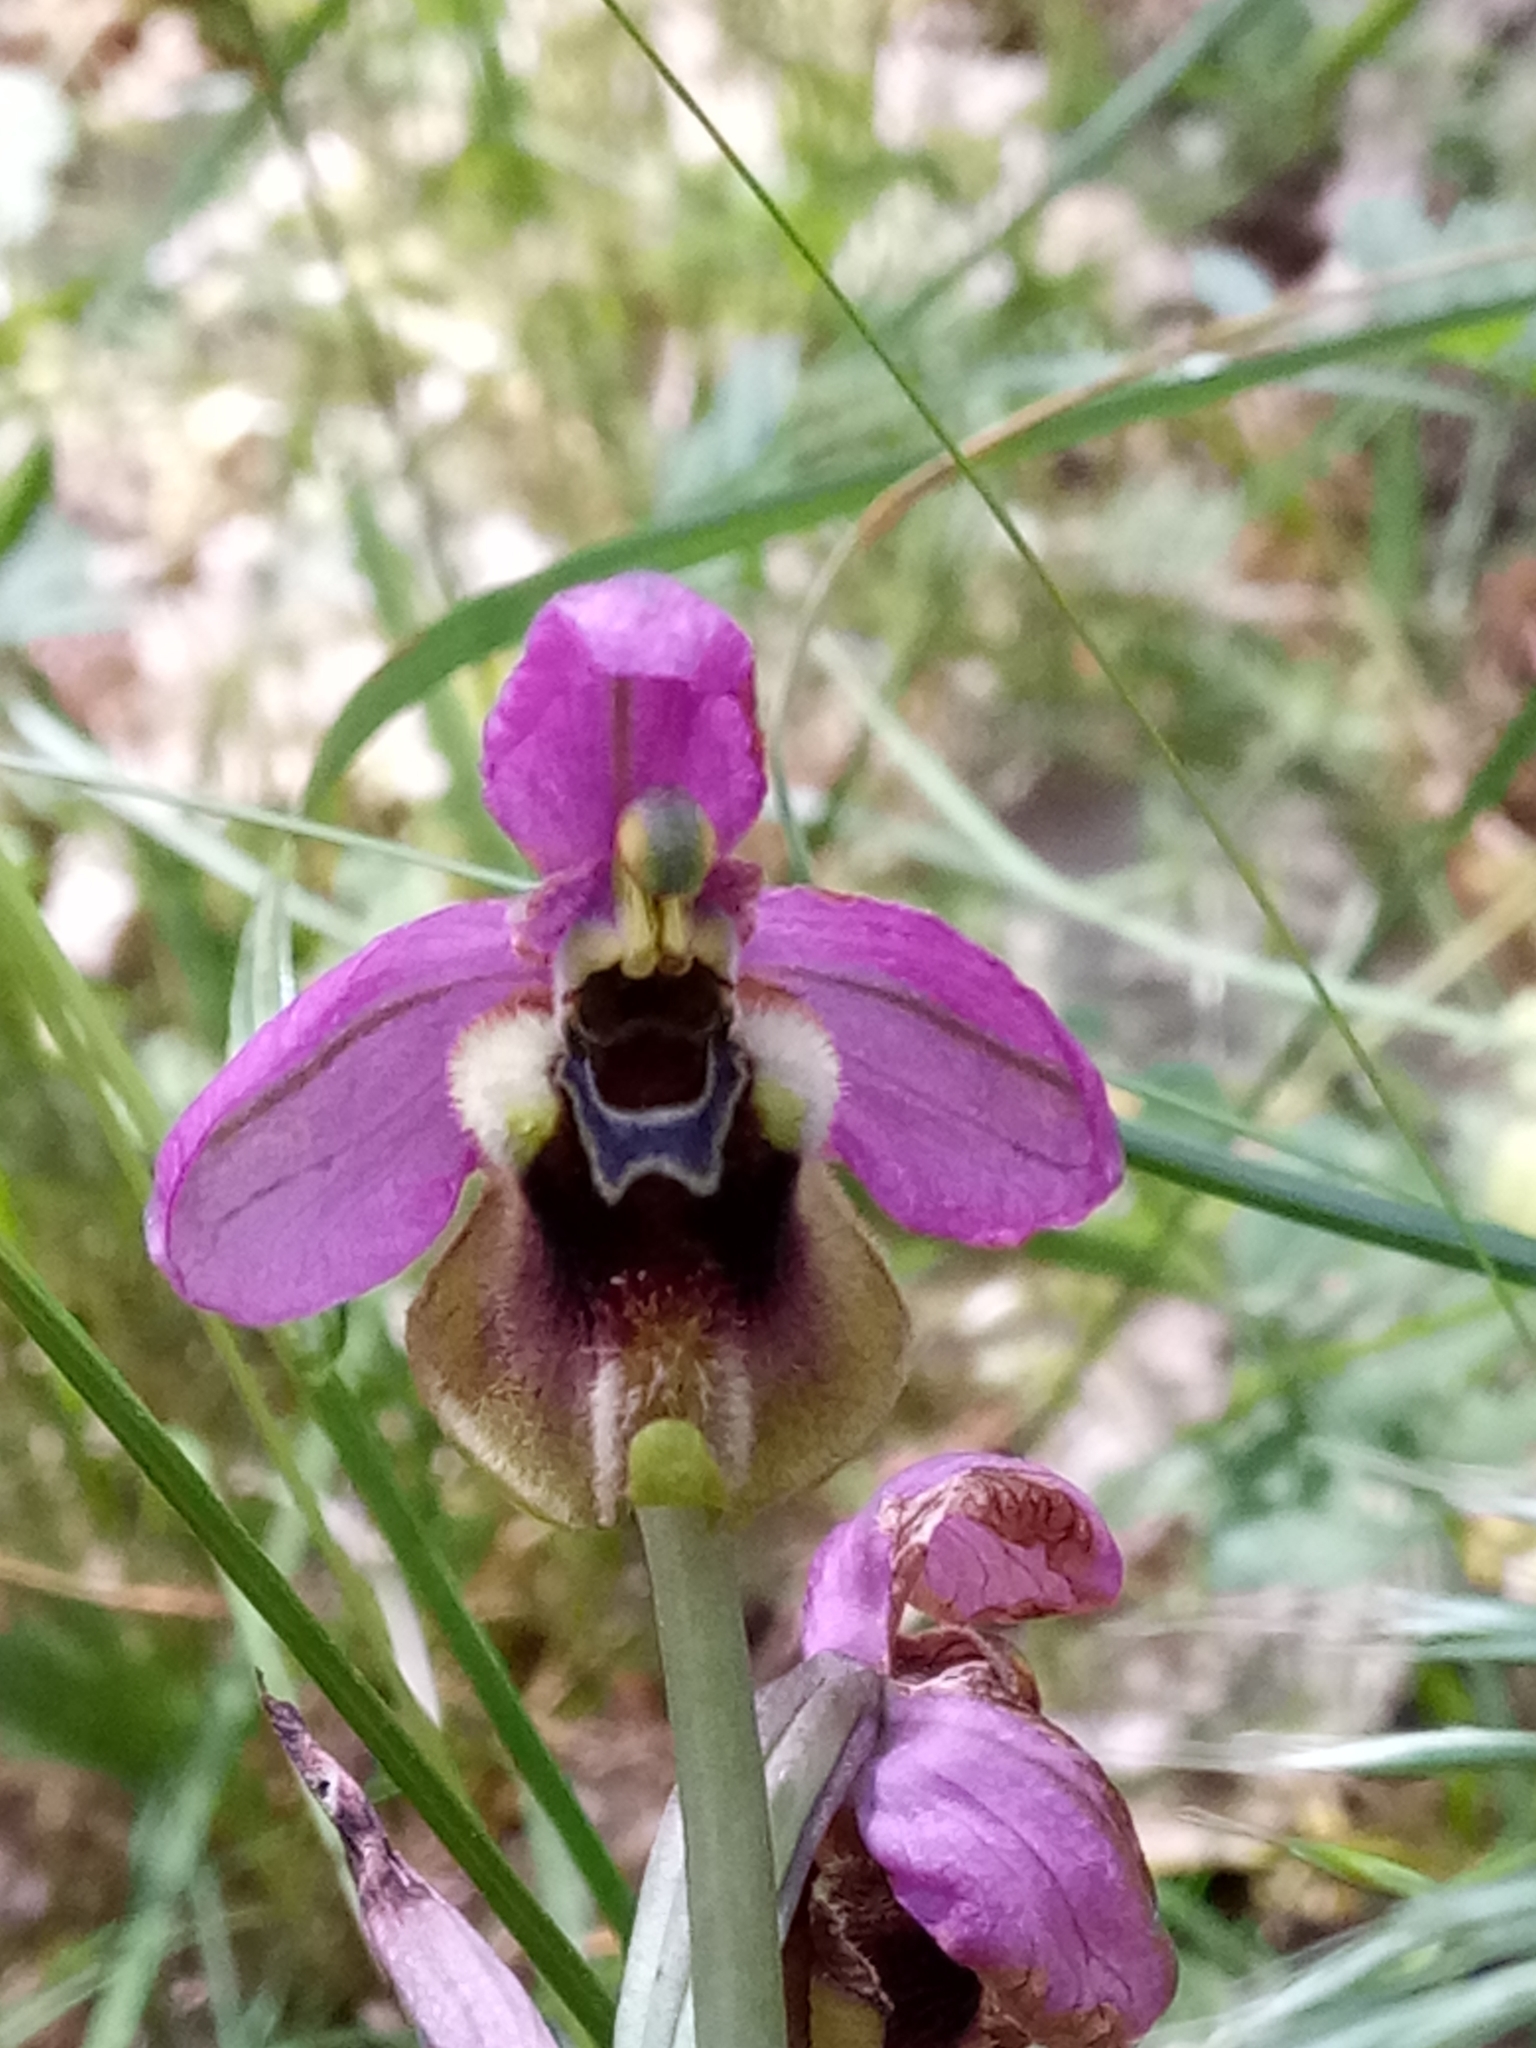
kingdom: Plantae
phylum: Tracheophyta
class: Liliopsida
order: Asparagales
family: Orchidaceae
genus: Ophrys
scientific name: Ophrys tenthredinifera
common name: Sawfly orchid
